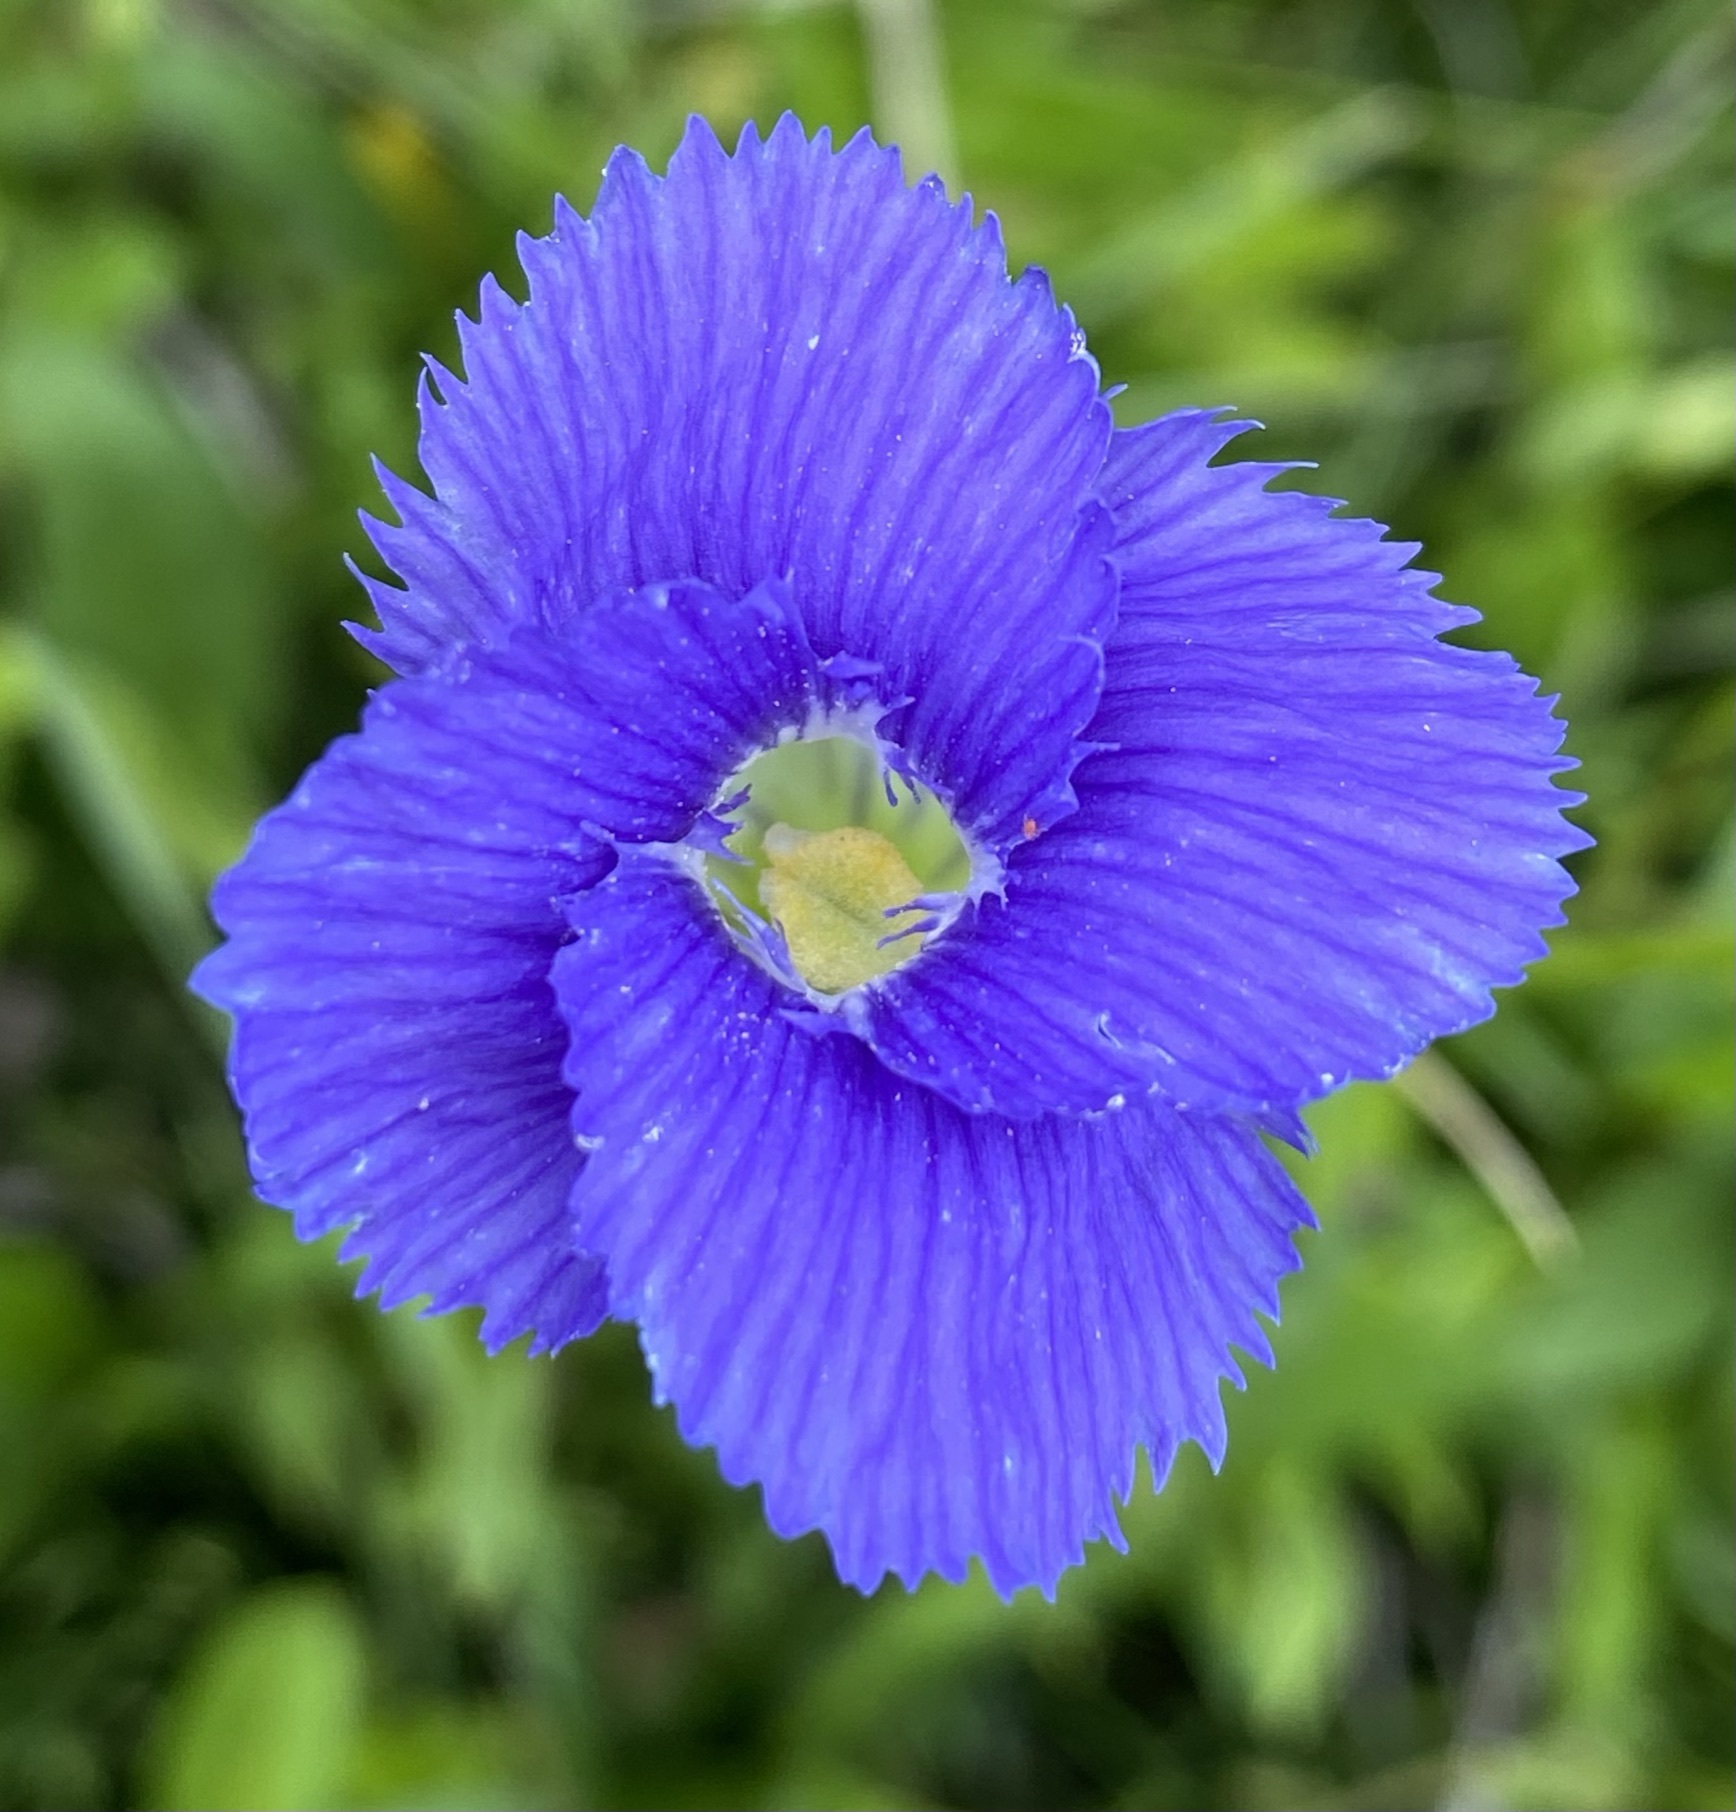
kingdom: Plantae
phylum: Tracheophyta
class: Magnoliopsida
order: Gentianales
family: Gentianaceae
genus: Gentianopsis
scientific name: Gentianopsis thermalis
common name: Rocky mountain fringed-gentian
